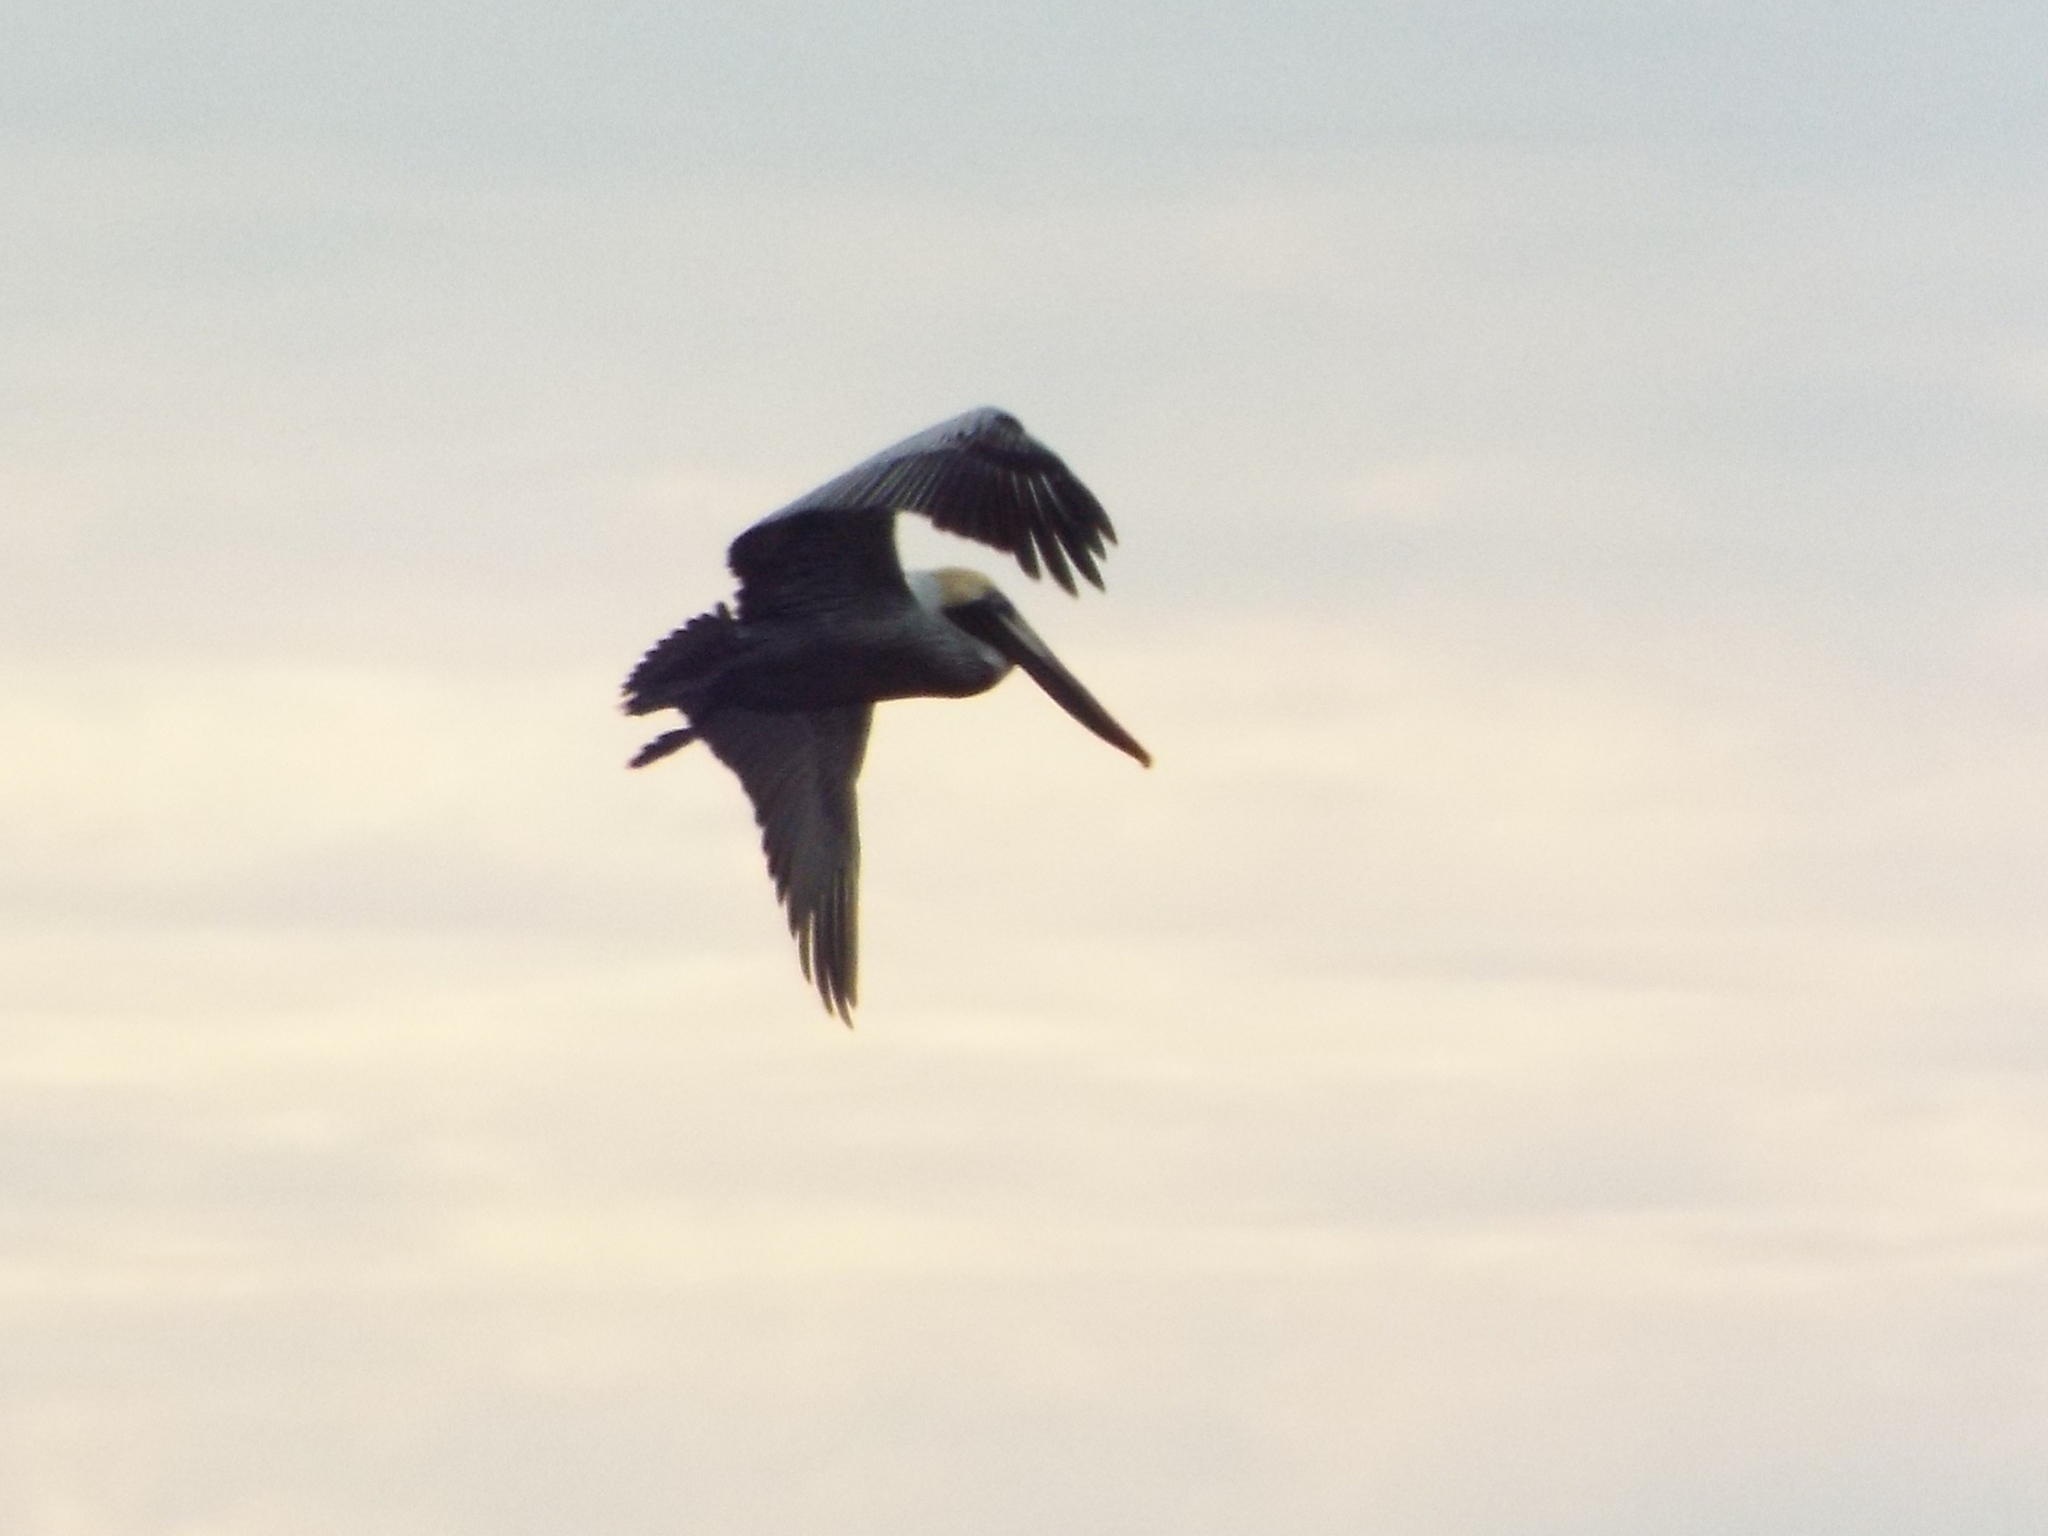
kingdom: Animalia
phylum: Chordata
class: Aves
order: Pelecaniformes
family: Pelecanidae
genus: Pelecanus
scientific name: Pelecanus occidentalis
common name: Brown pelican
